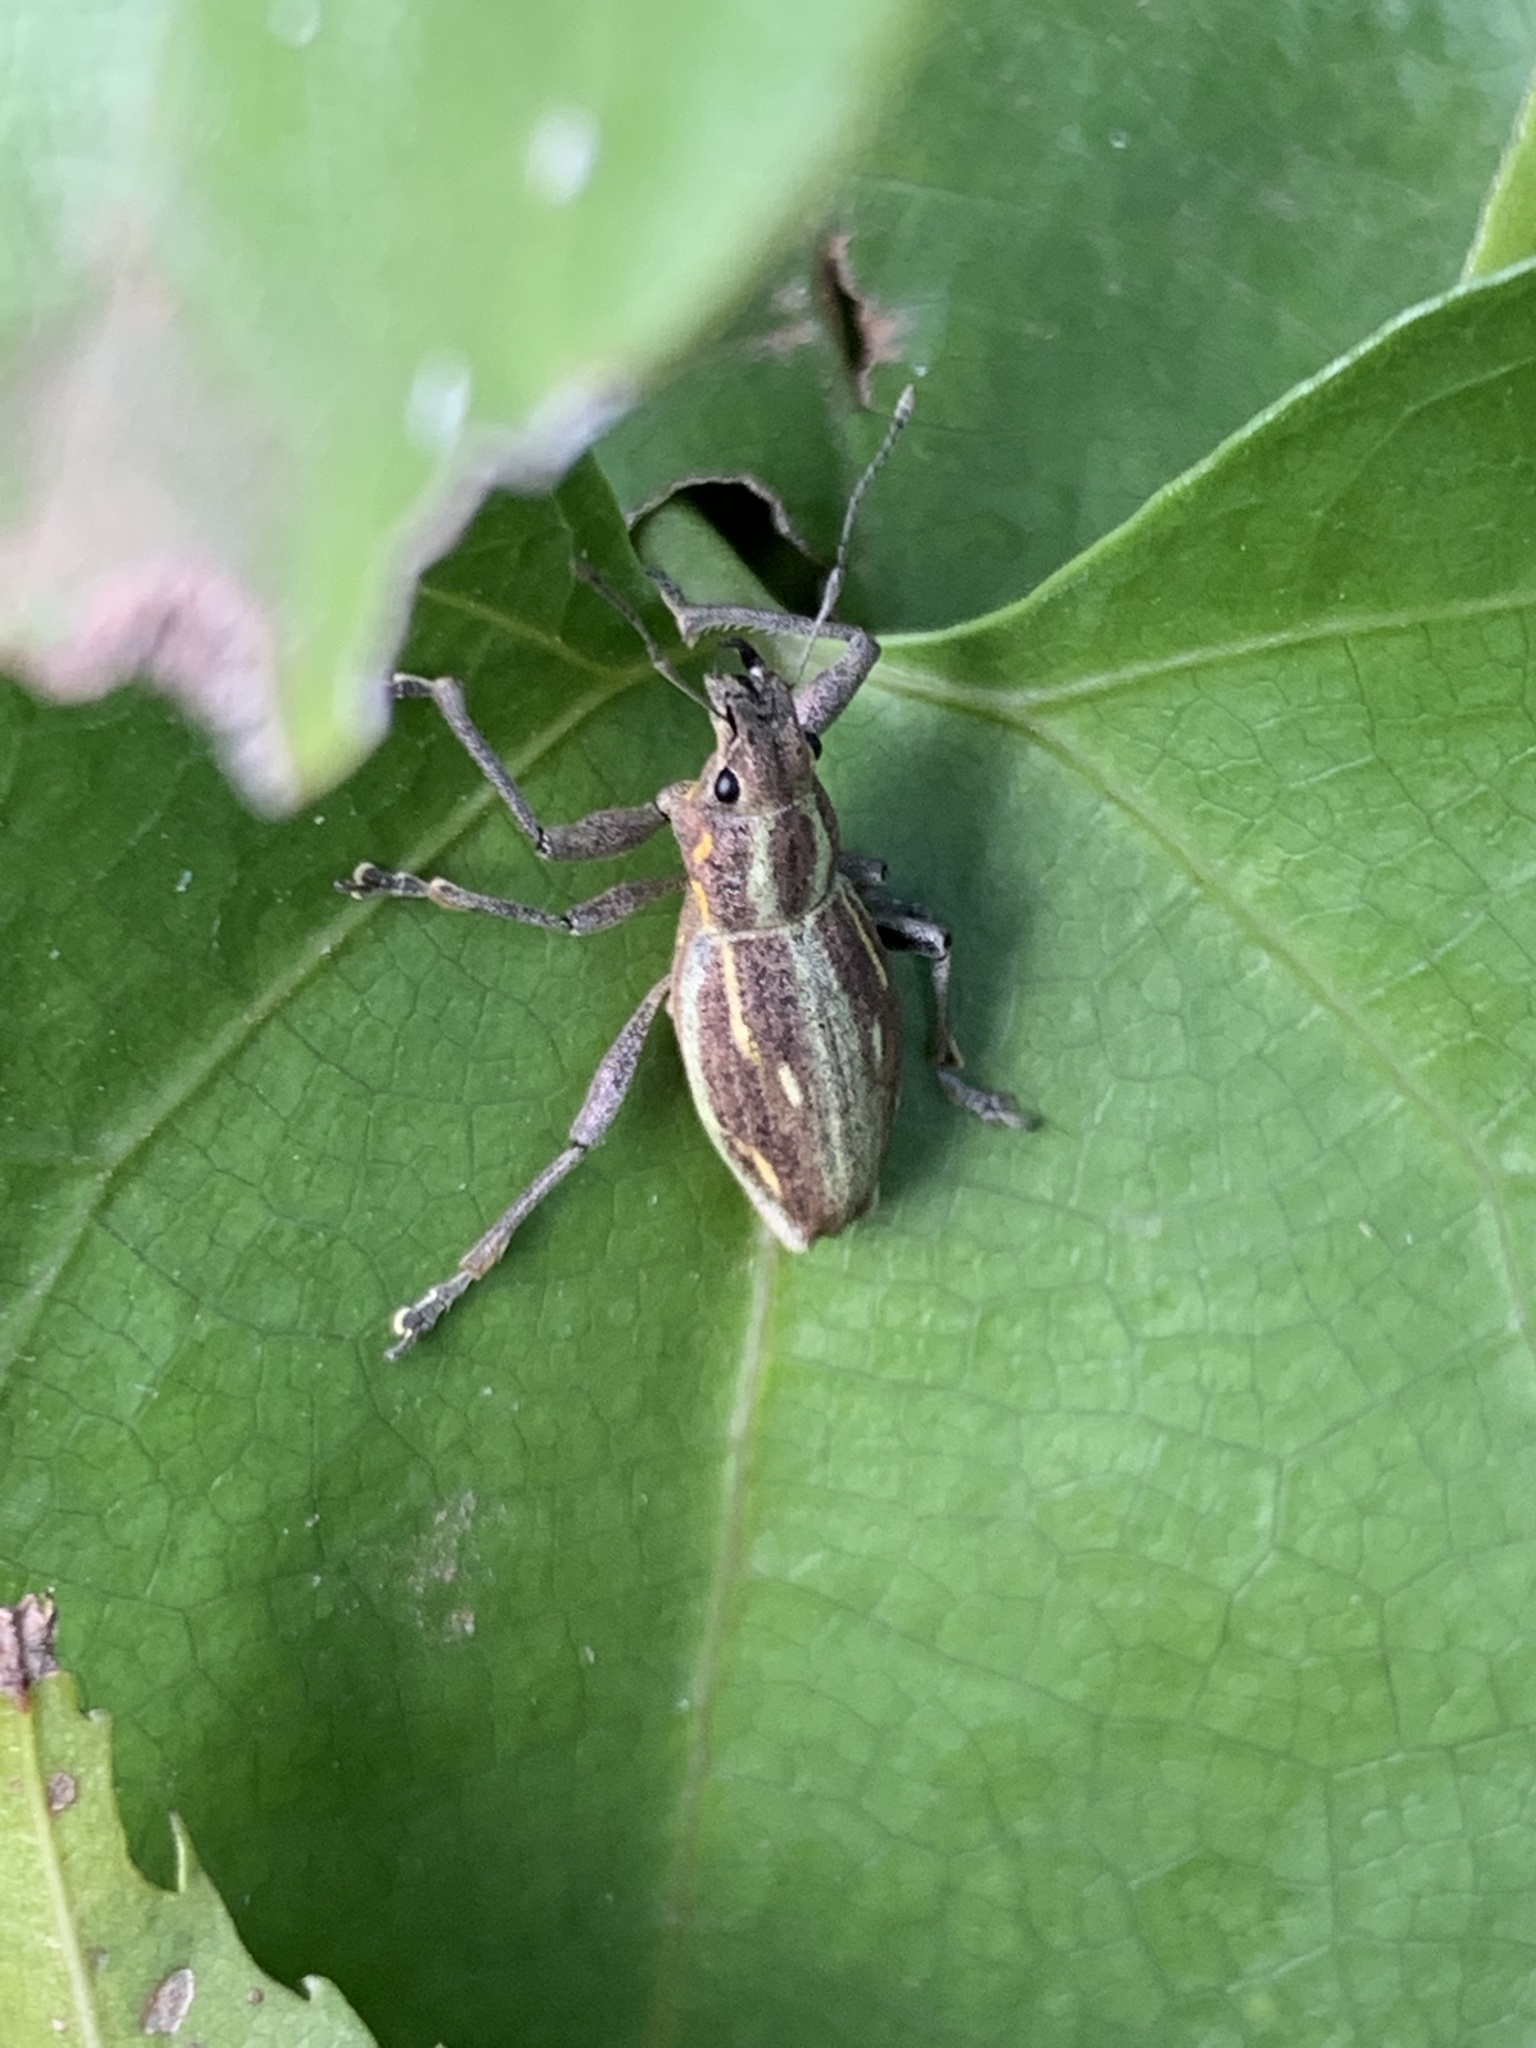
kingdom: Animalia
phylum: Arthropoda
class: Insecta
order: Coleoptera
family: Curculionidae
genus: Naupactus
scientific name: Naupactus xanthographus
